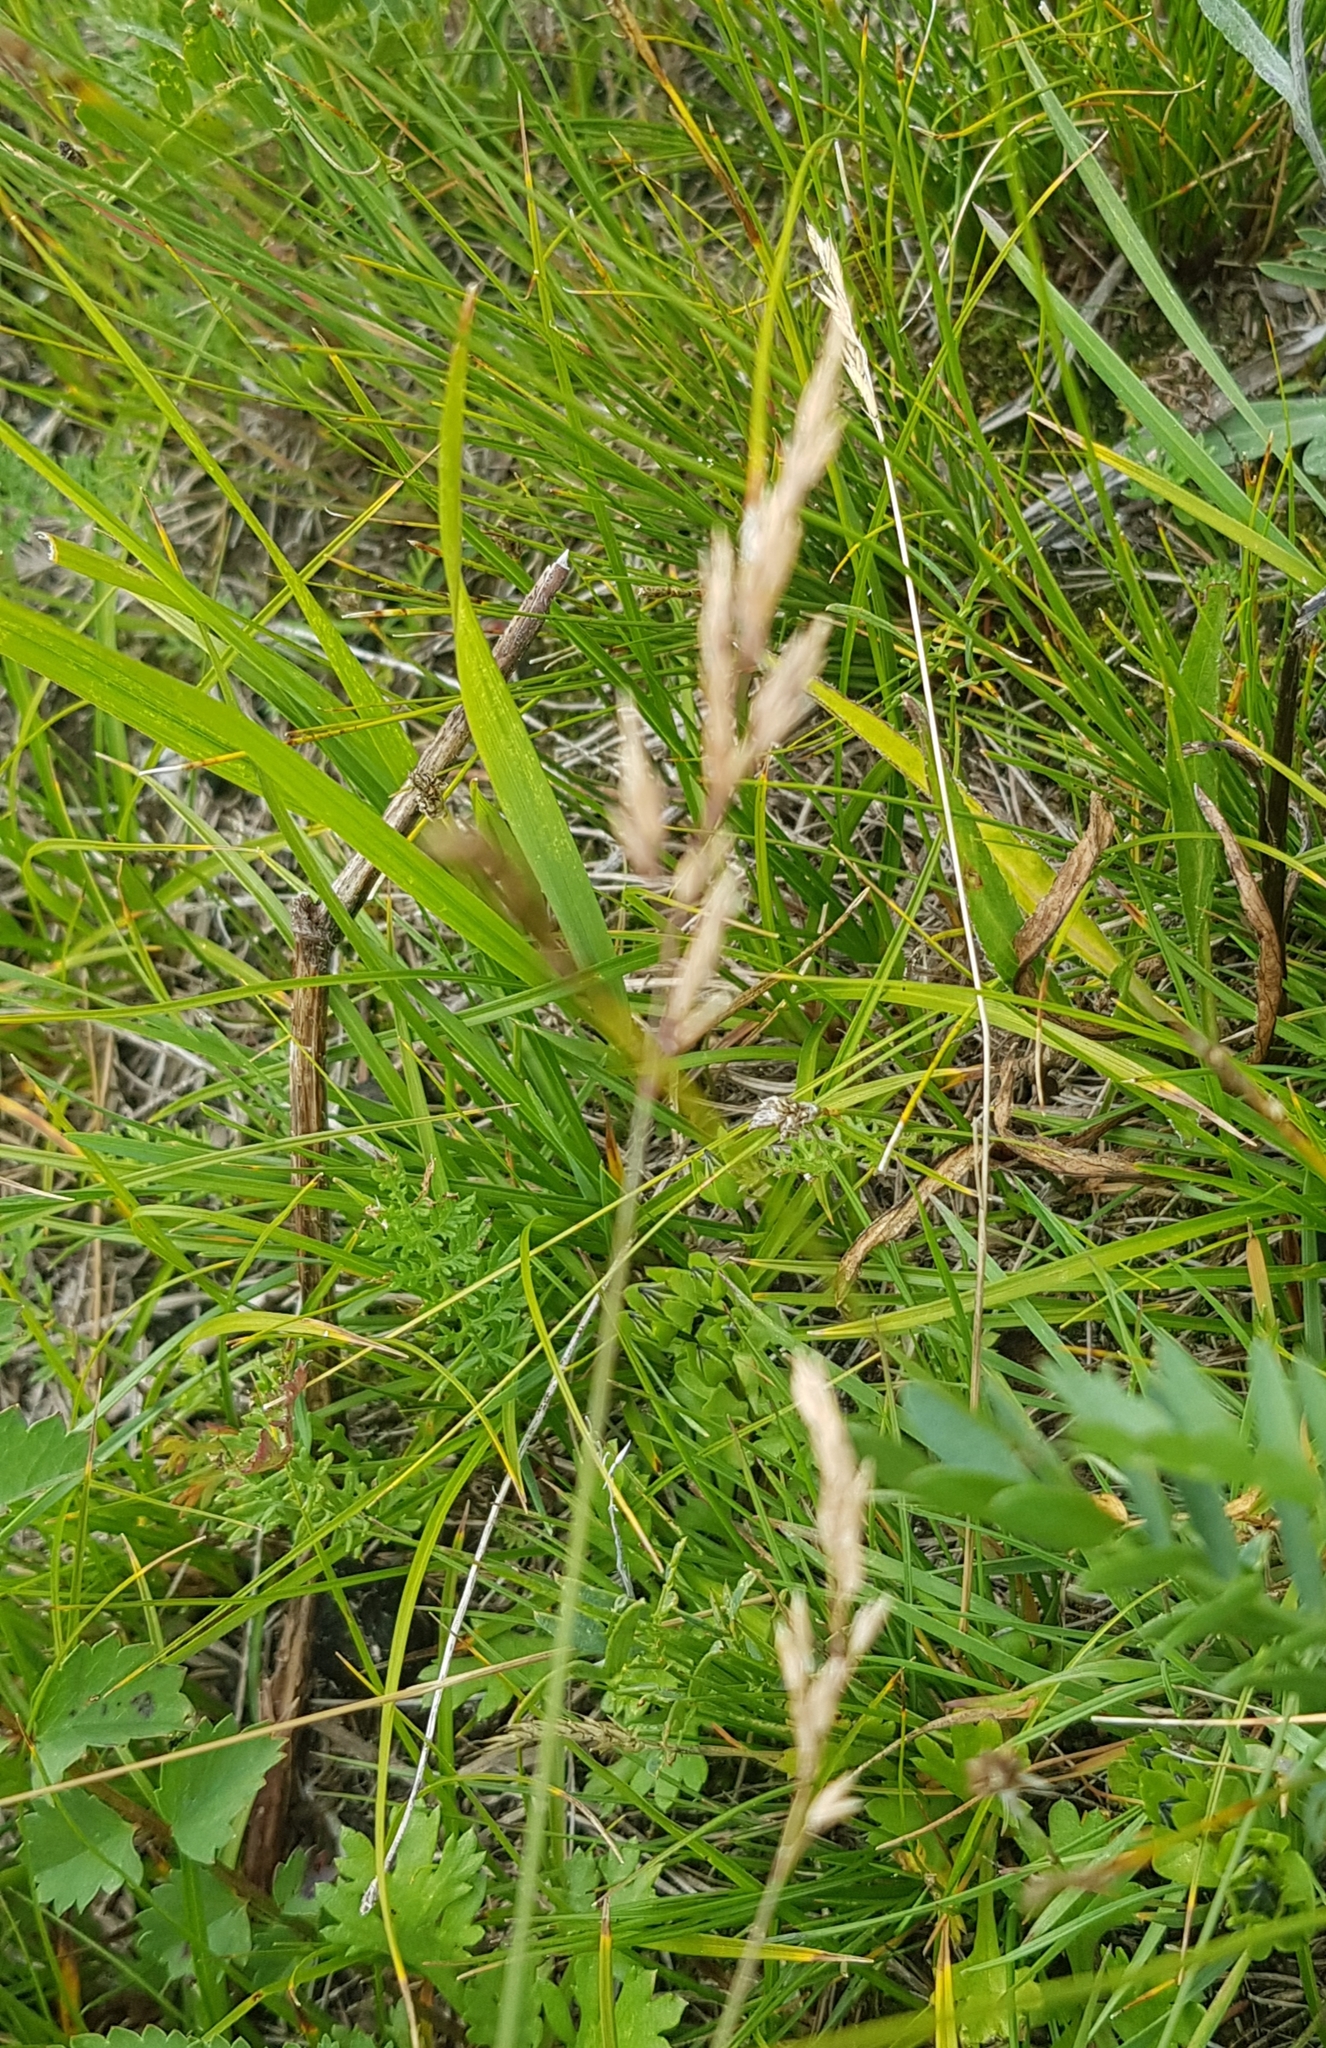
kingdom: Plantae
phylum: Tracheophyta
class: Liliopsida
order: Poales
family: Poaceae
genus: Festuca
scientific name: Festuca rubra
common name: Red fescue
